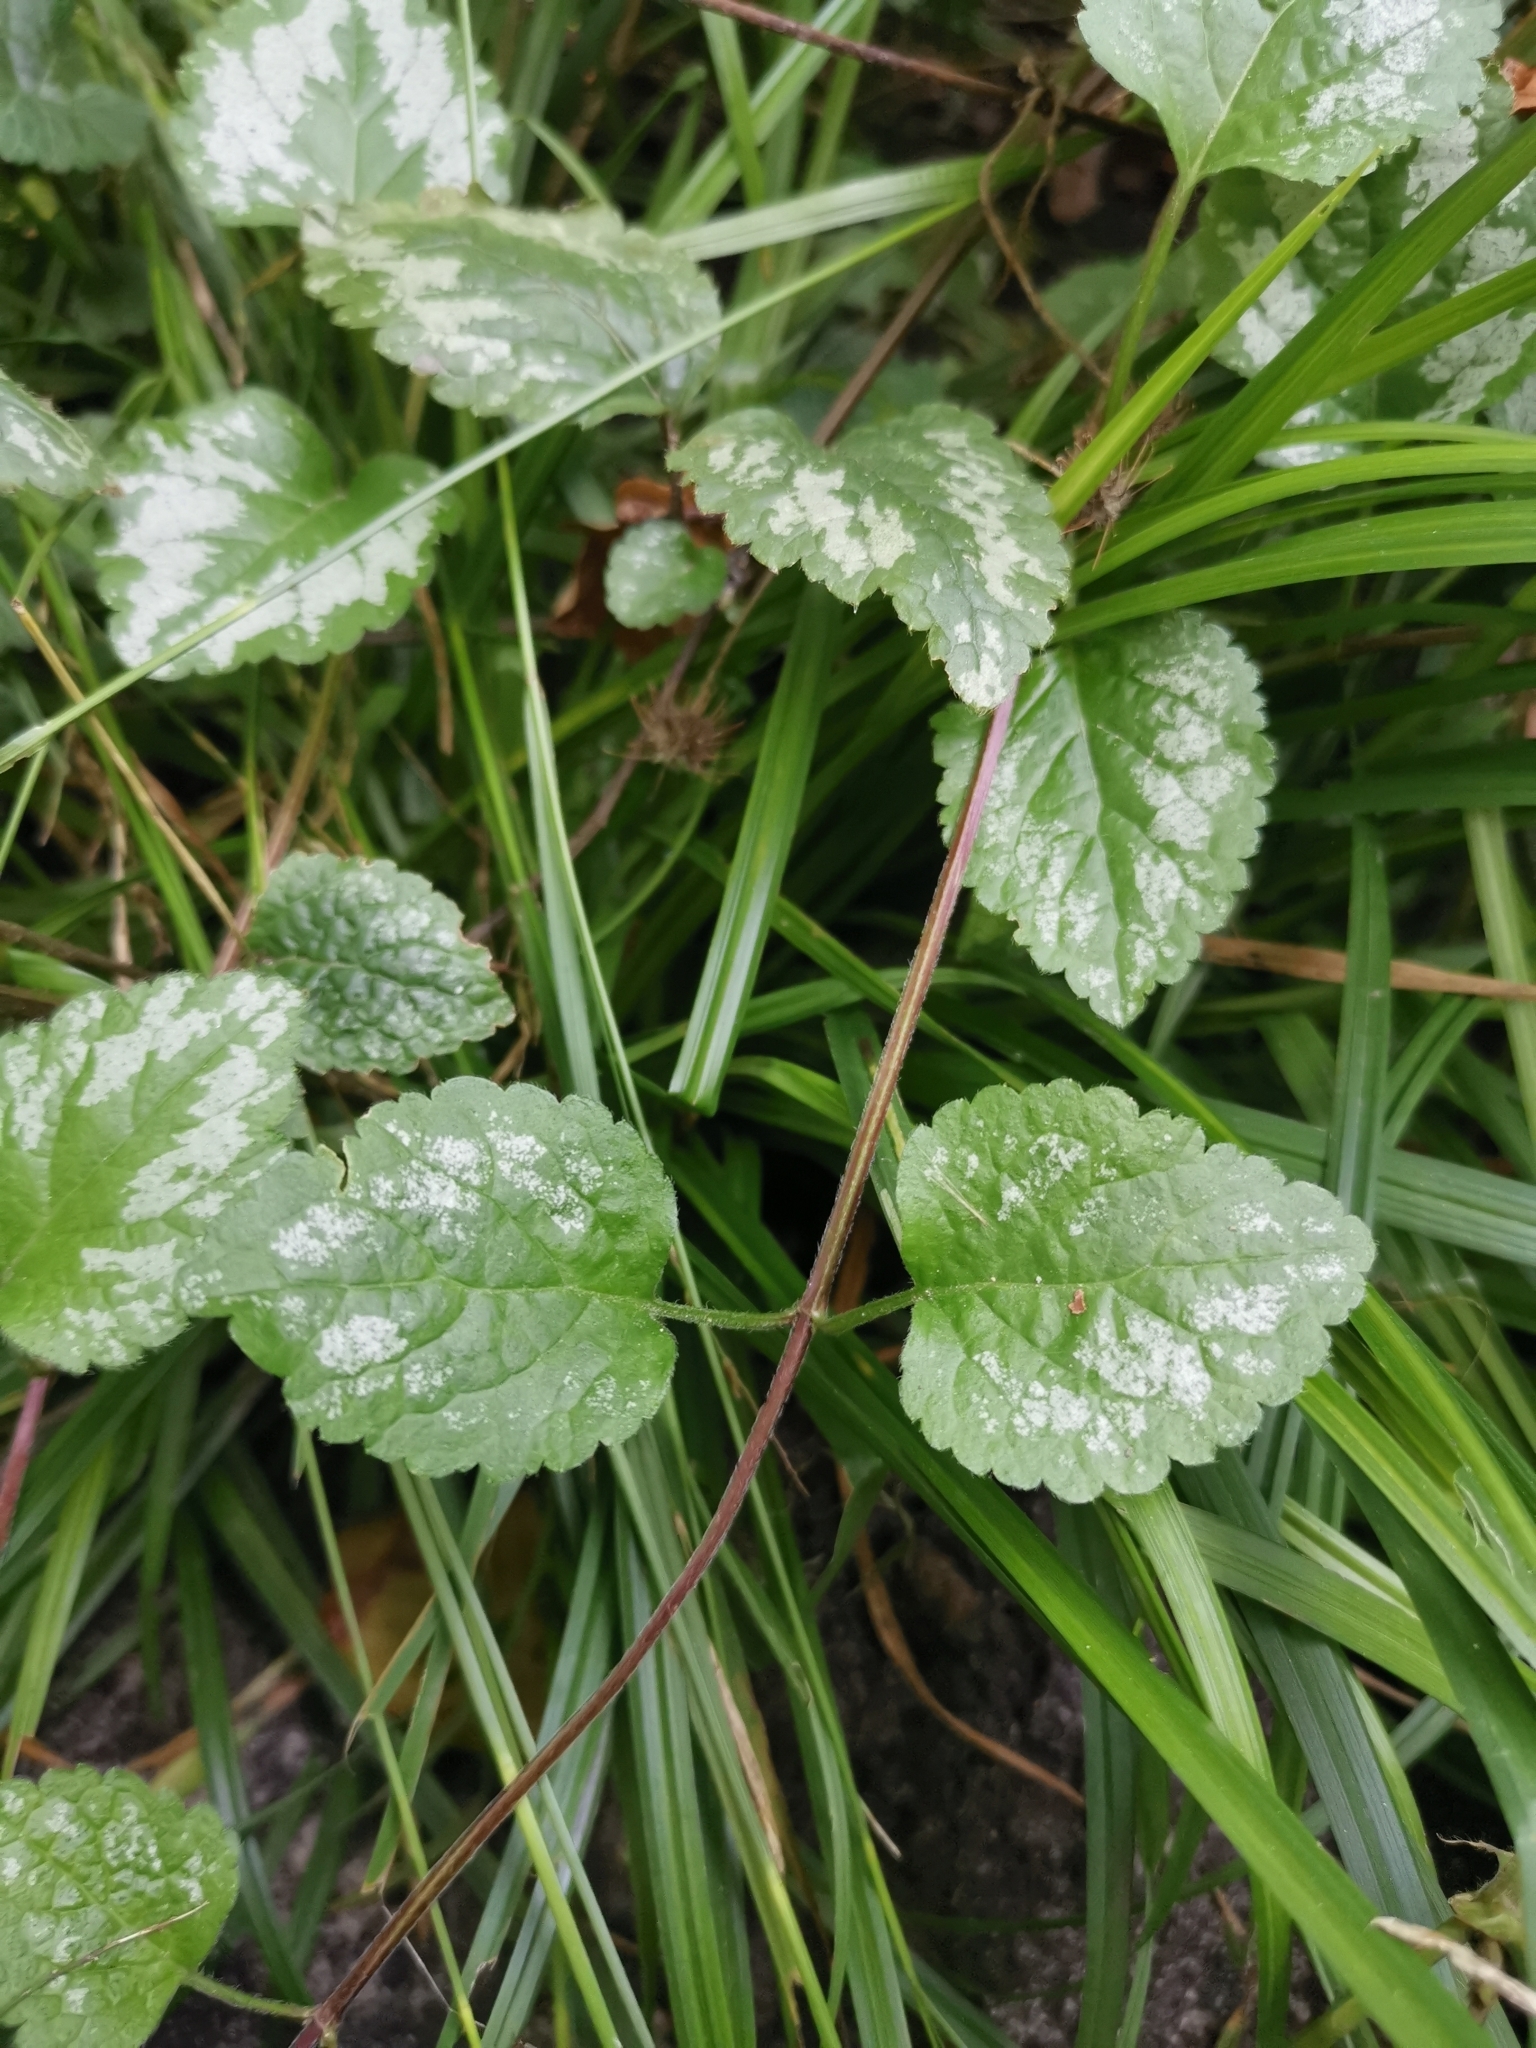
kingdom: Plantae
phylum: Tracheophyta
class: Magnoliopsida
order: Lamiales
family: Lamiaceae
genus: Lamium
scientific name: Lamium galeobdolon
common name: Yellow archangel
